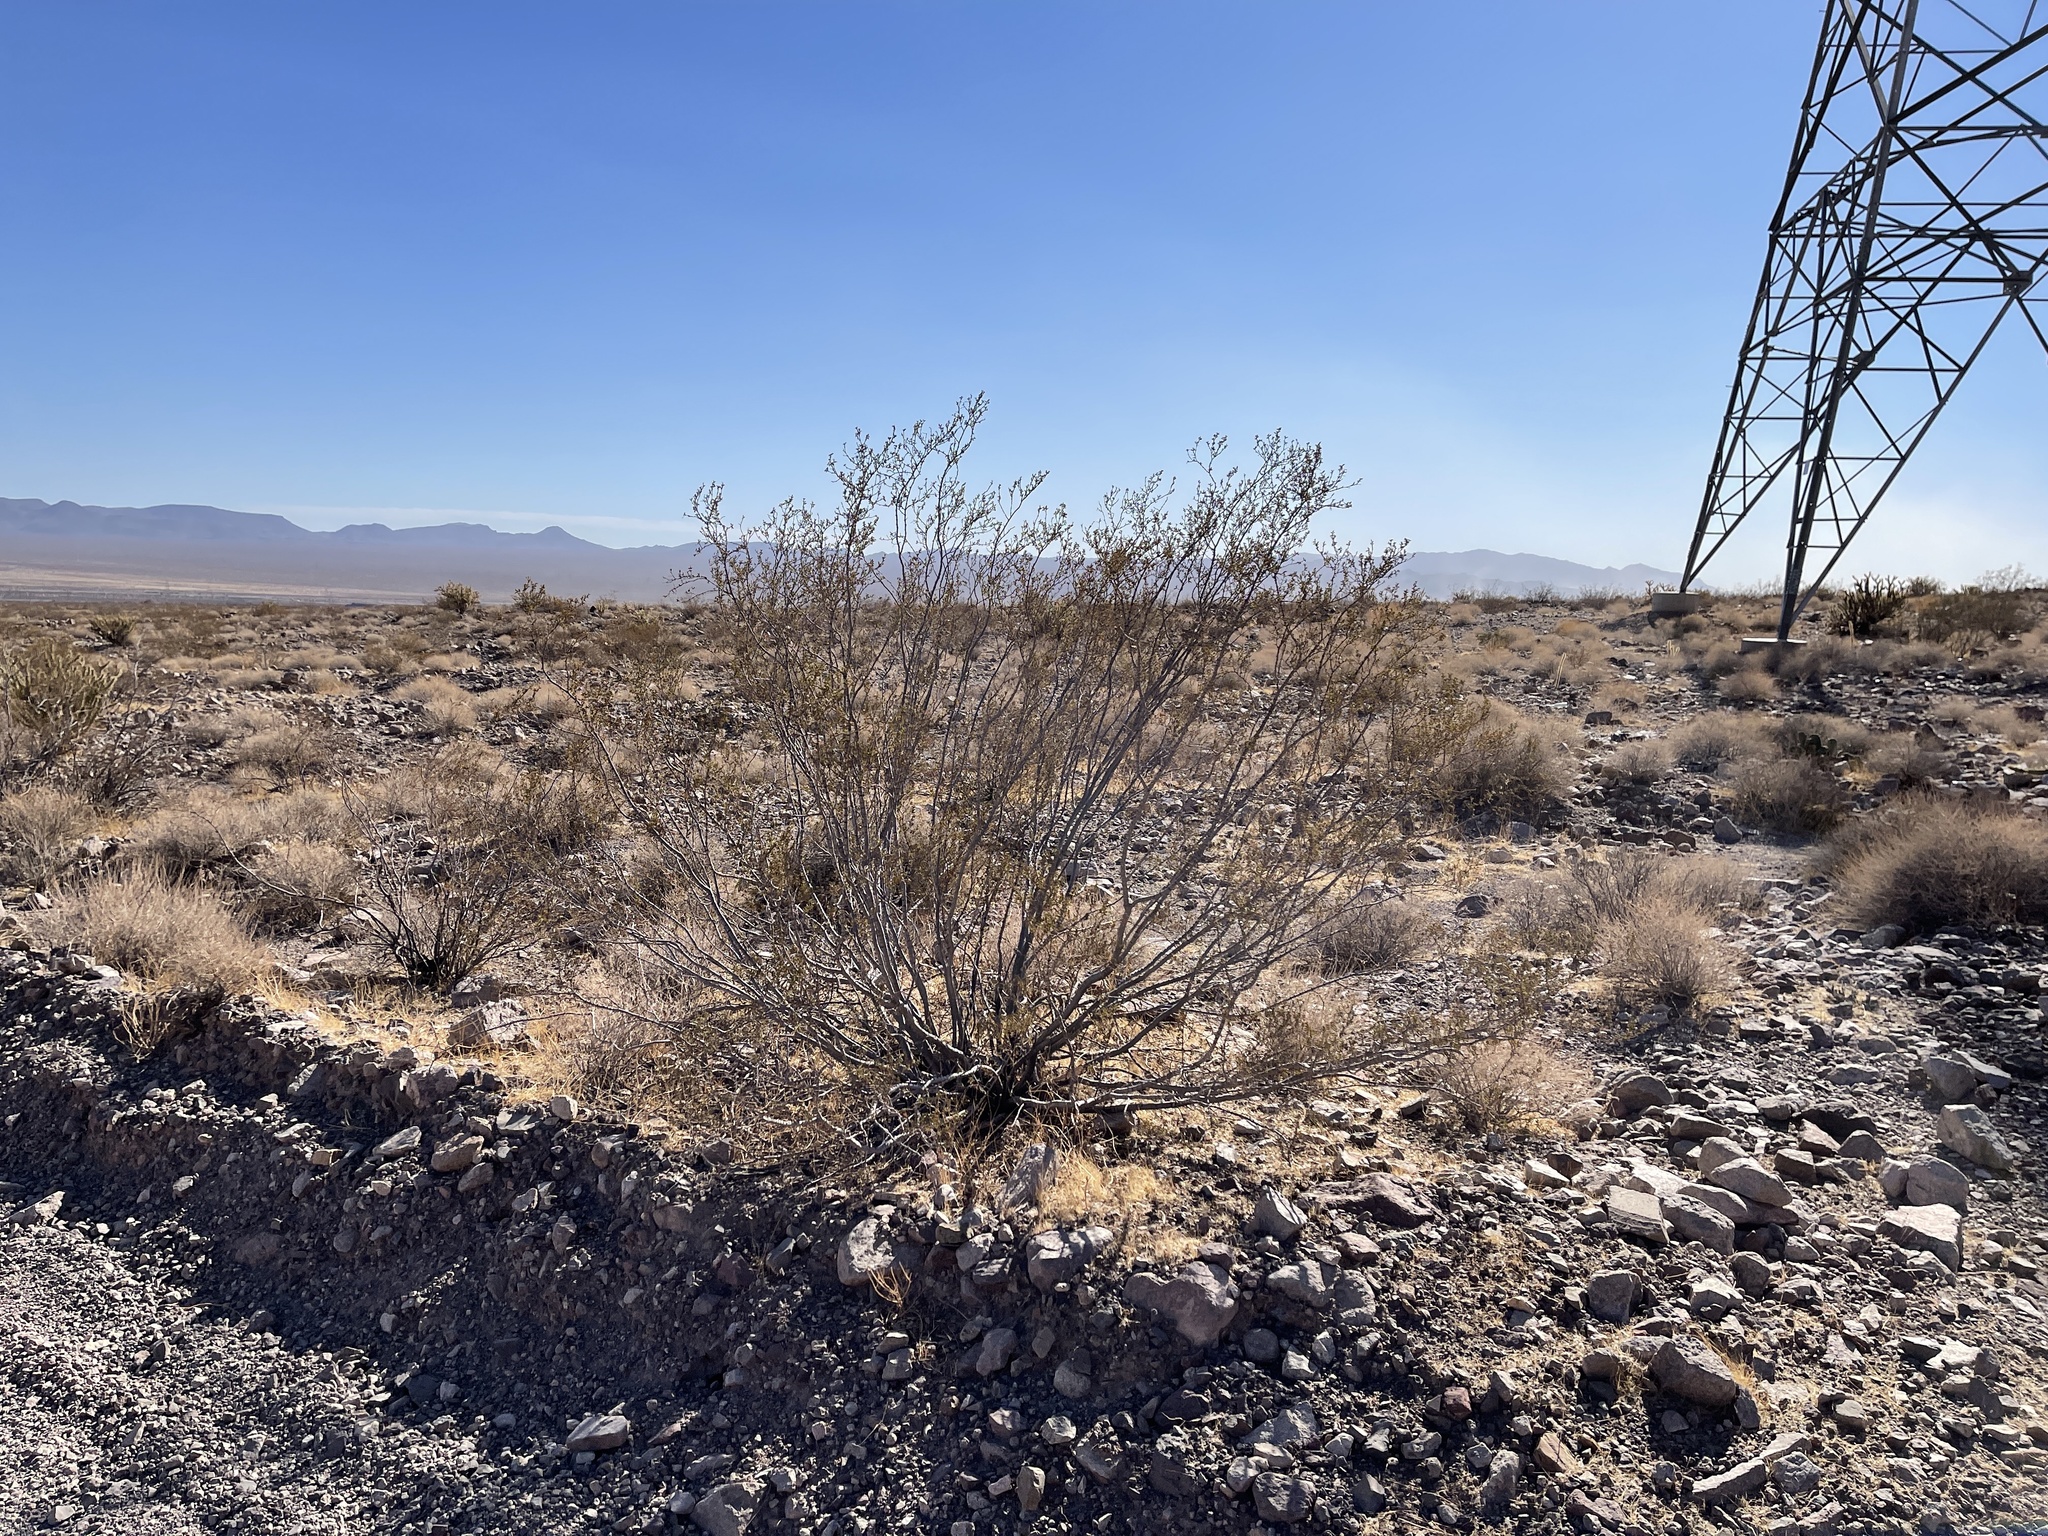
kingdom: Plantae
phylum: Tracheophyta
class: Magnoliopsida
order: Zygophyllales
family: Zygophyllaceae
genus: Larrea
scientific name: Larrea tridentata
